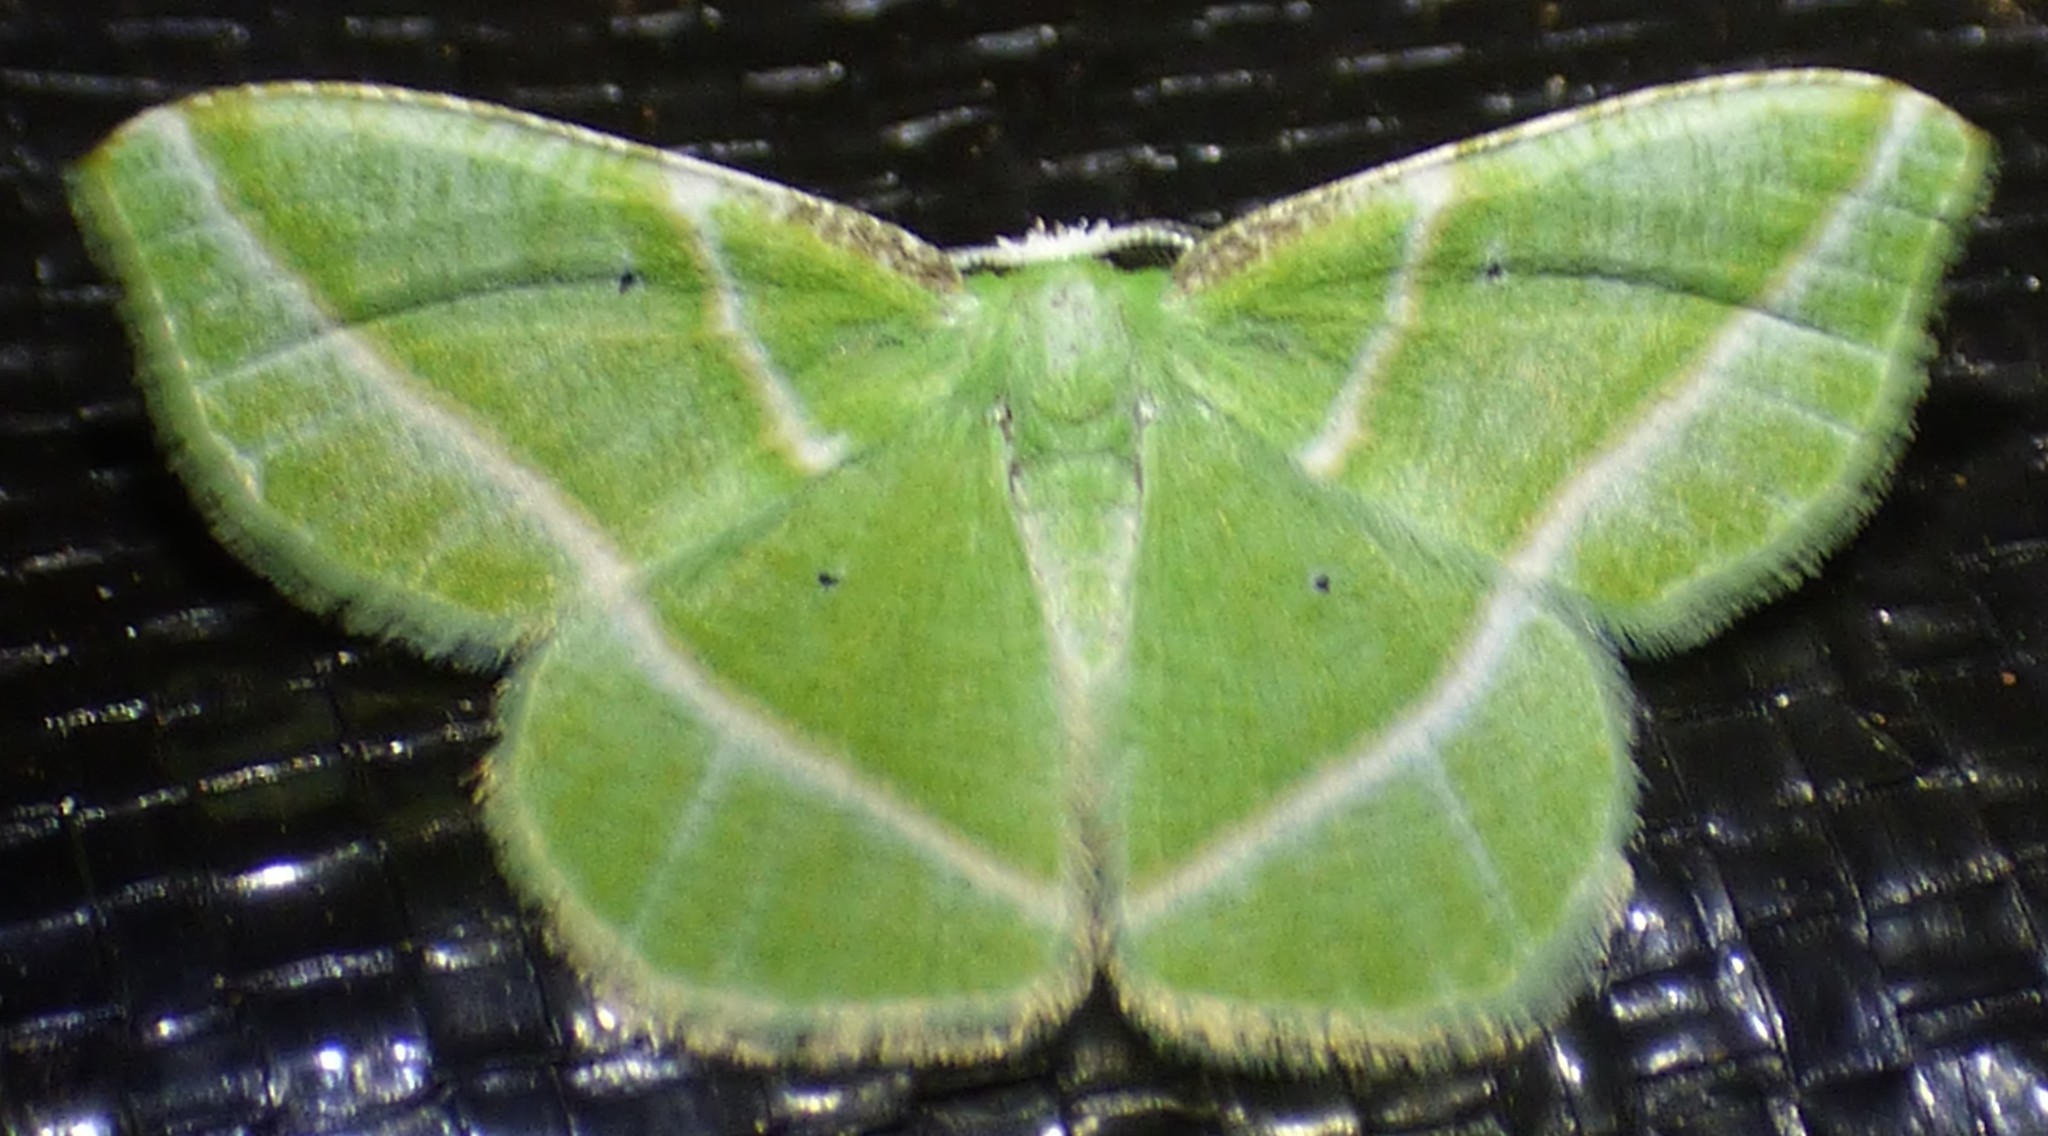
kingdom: Animalia
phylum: Arthropoda
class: Insecta
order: Lepidoptera
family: Geometridae
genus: Dichorda
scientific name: Dichorda iridaria
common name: Showy emerald
